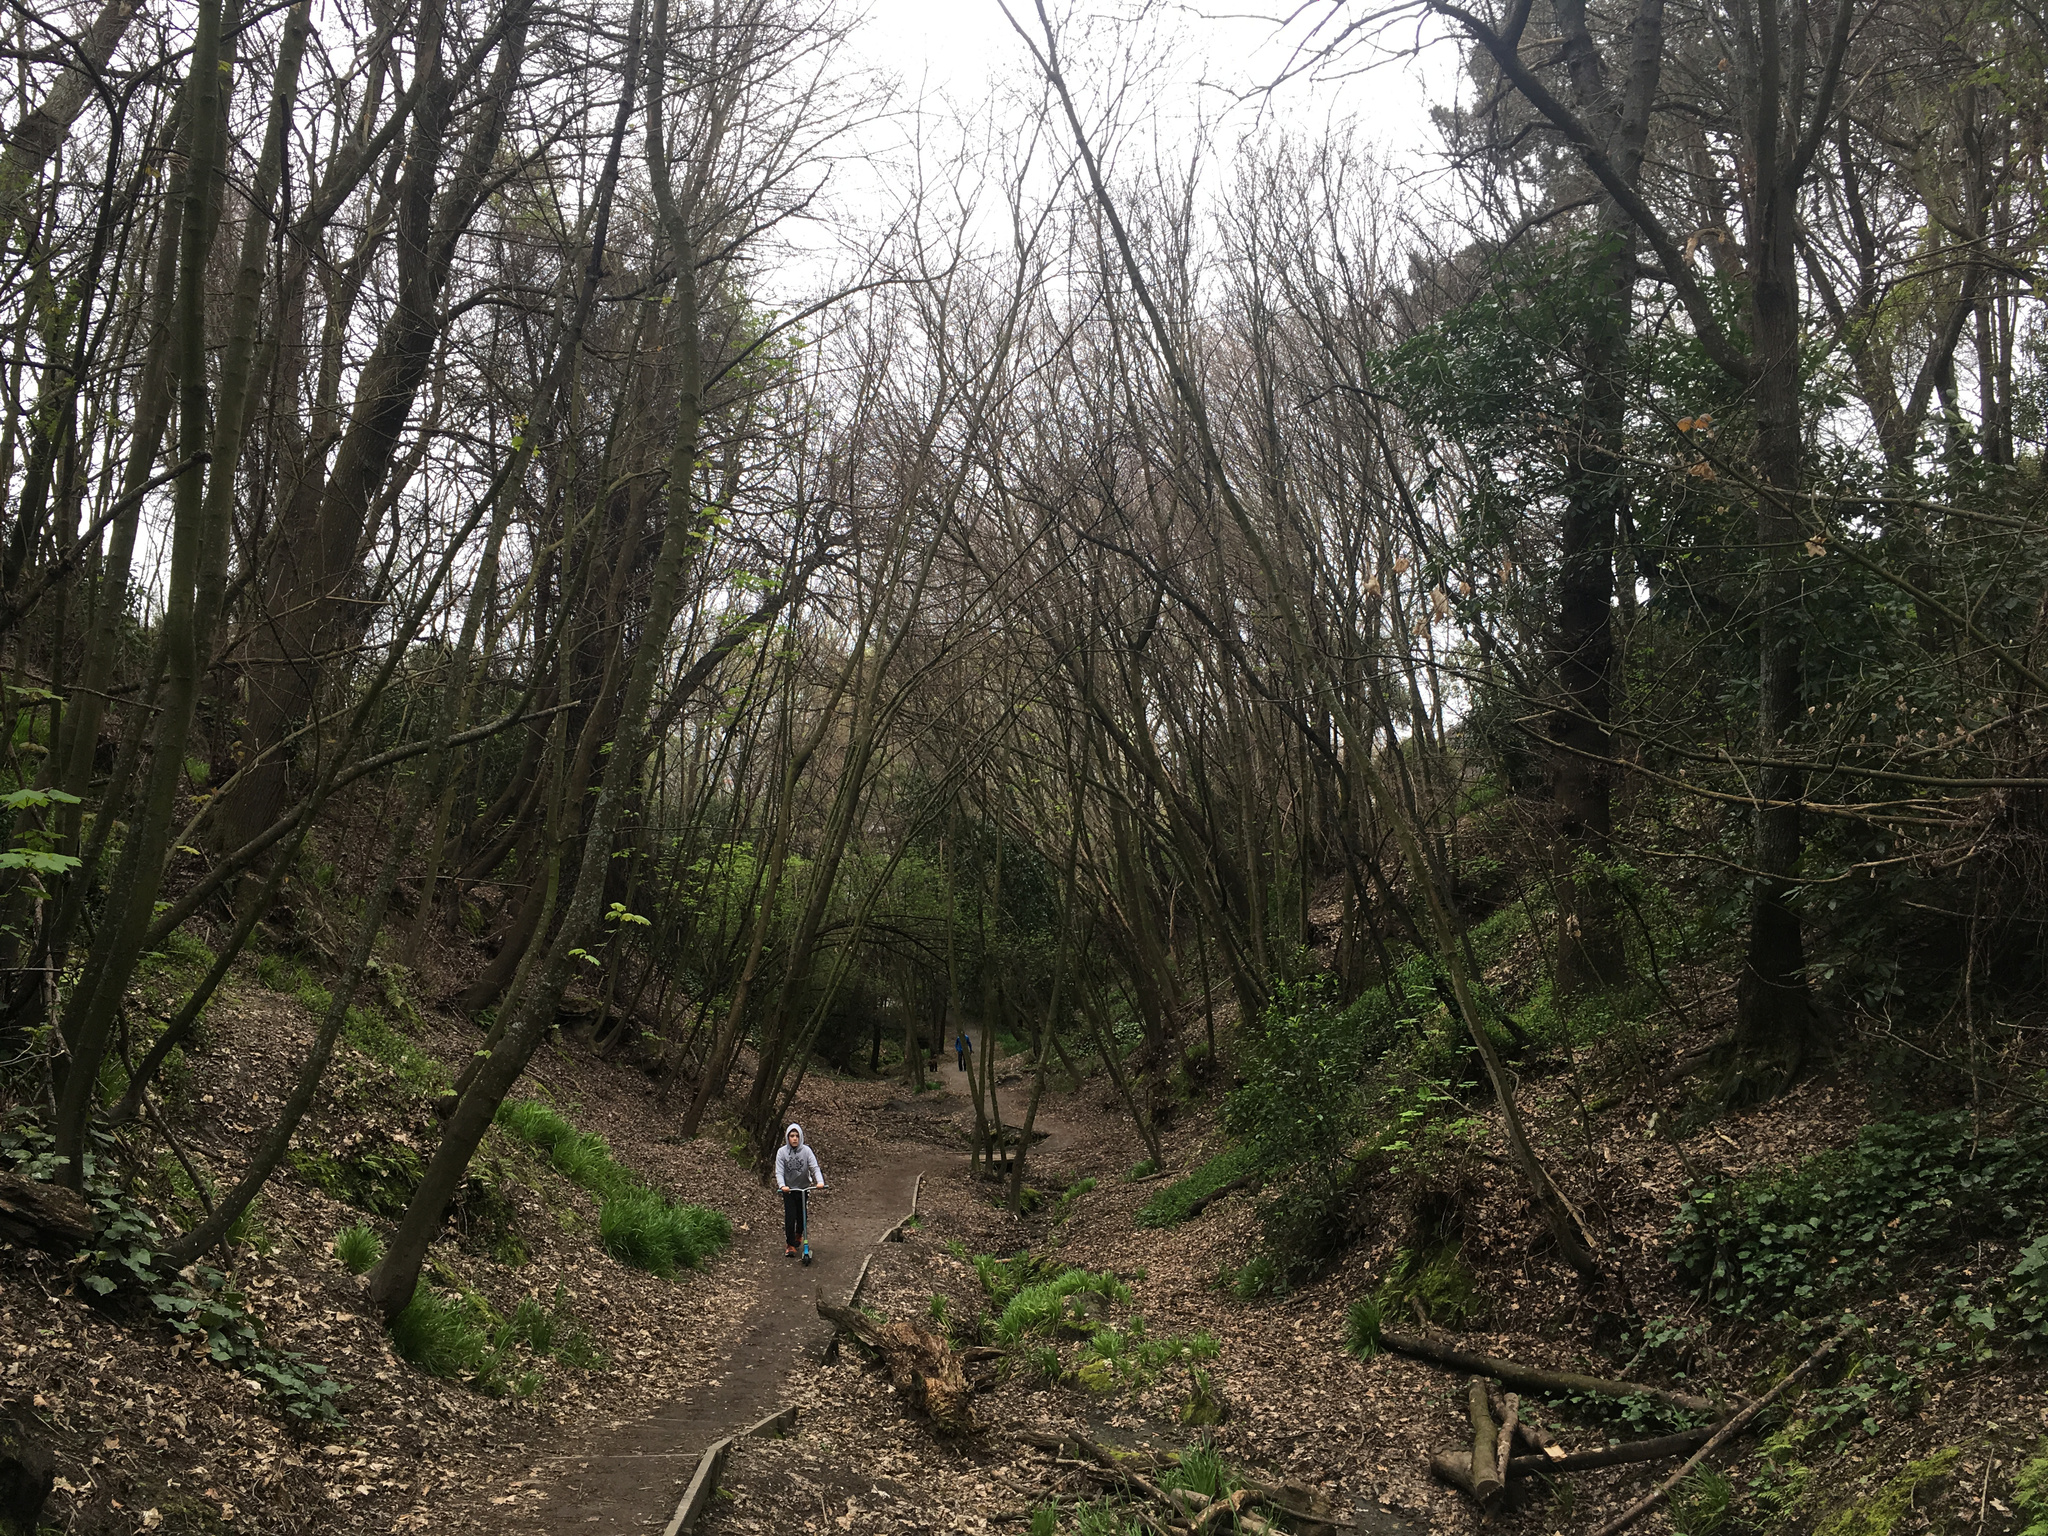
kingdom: Plantae
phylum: Tracheophyta
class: Magnoliopsida
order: Sapindales
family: Sapindaceae
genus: Acer
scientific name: Acer pseudoplatanus
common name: Sycamore
